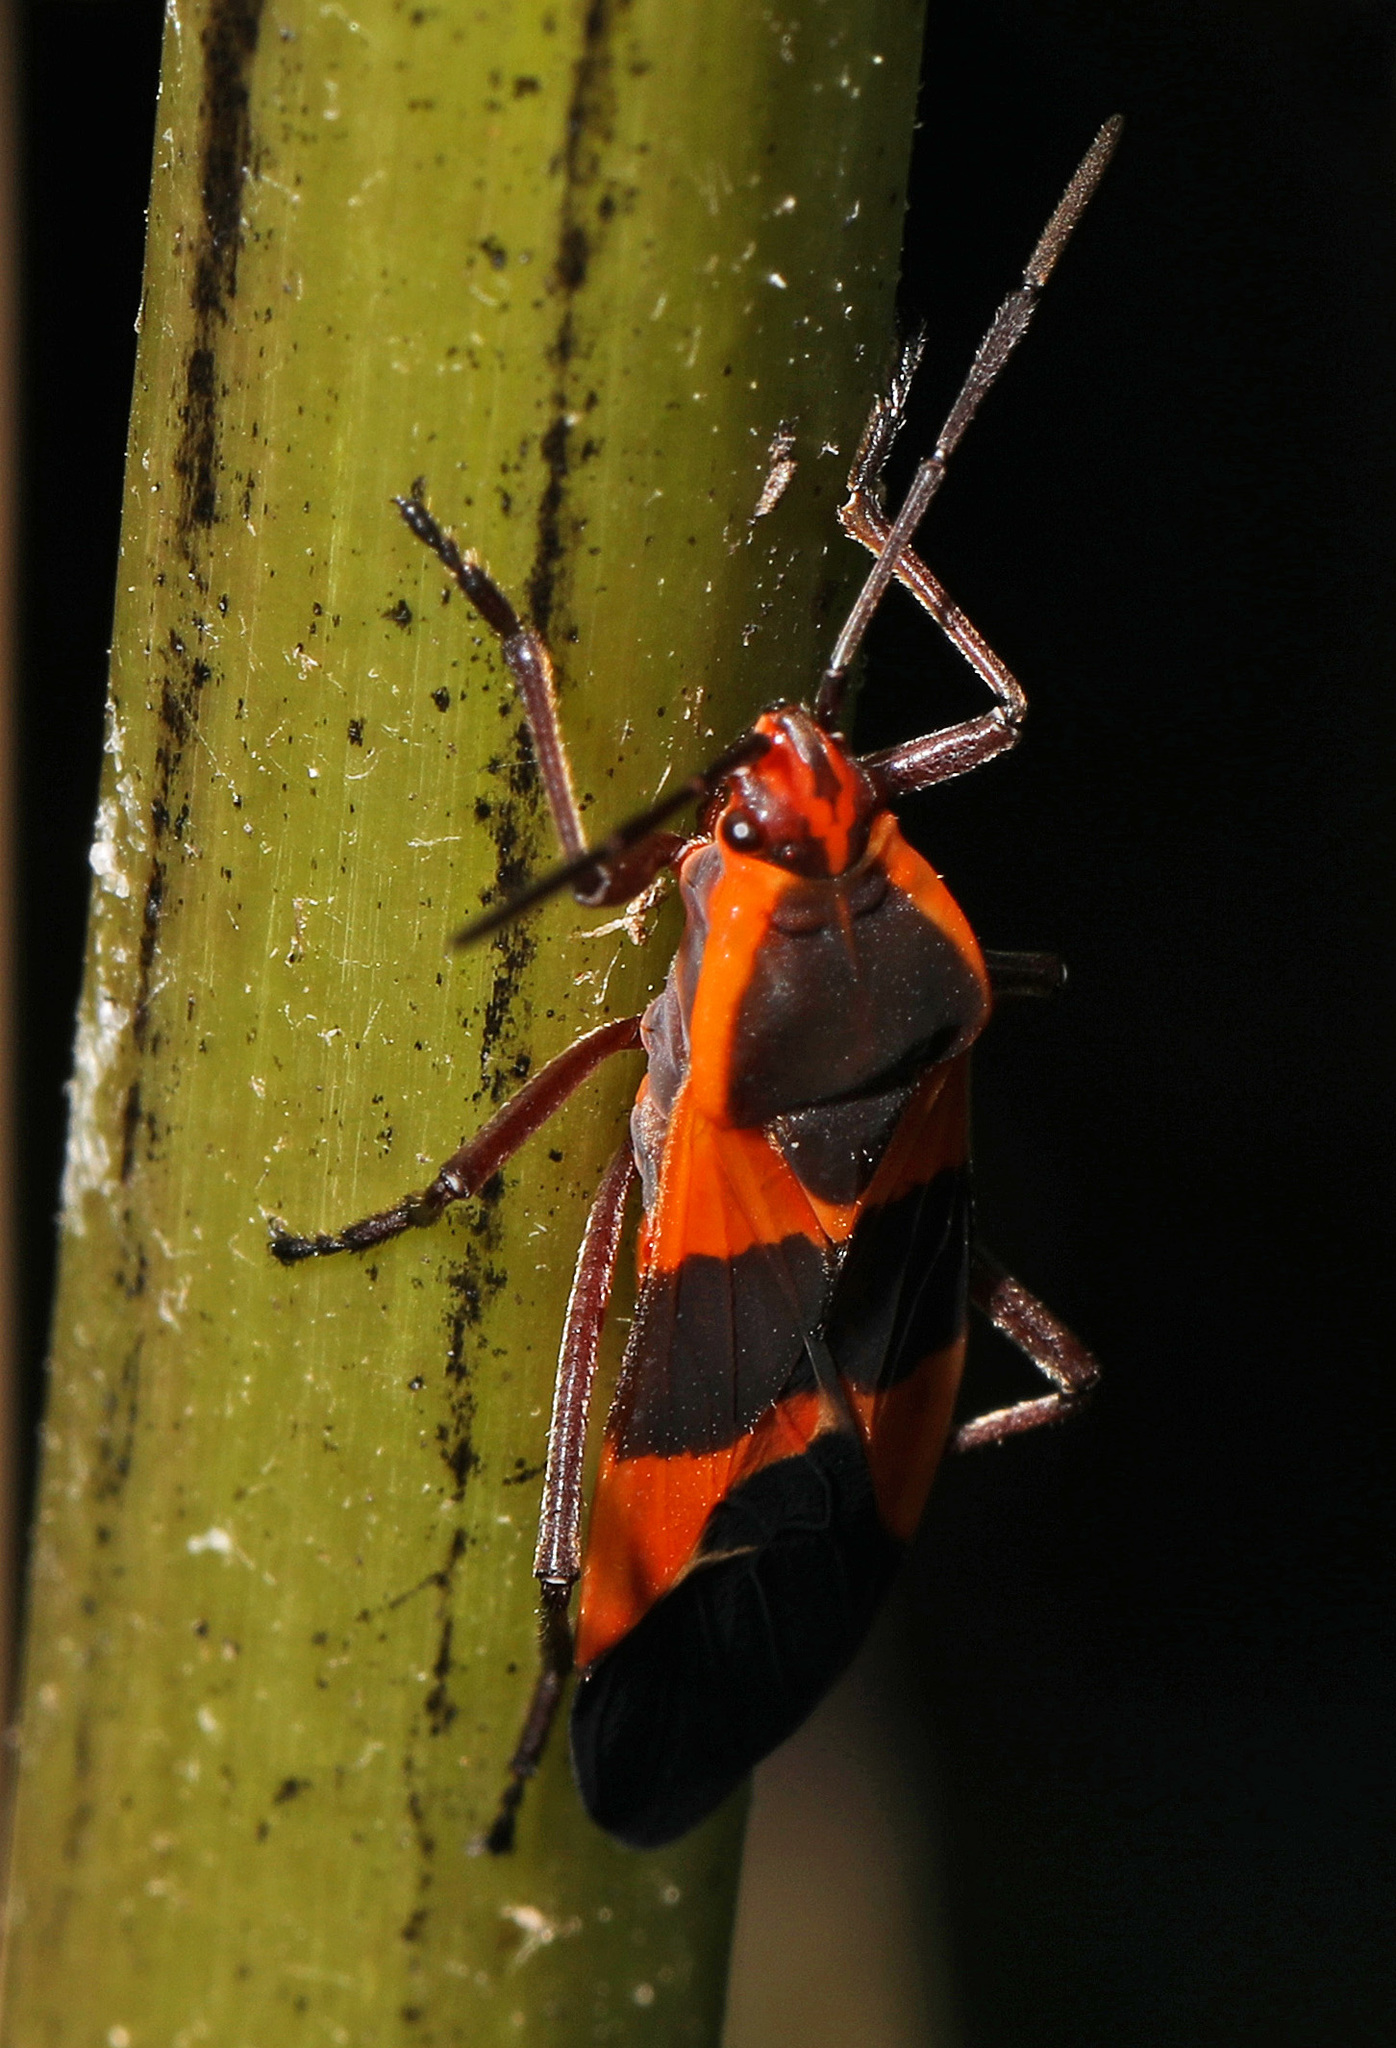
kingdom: Animalia
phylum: Arthropoda
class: Insecta
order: Hemiptera
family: Lygaeidae
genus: Oncopeltus
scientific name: Oncopeltus fasciatus
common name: Large milkweed bug
